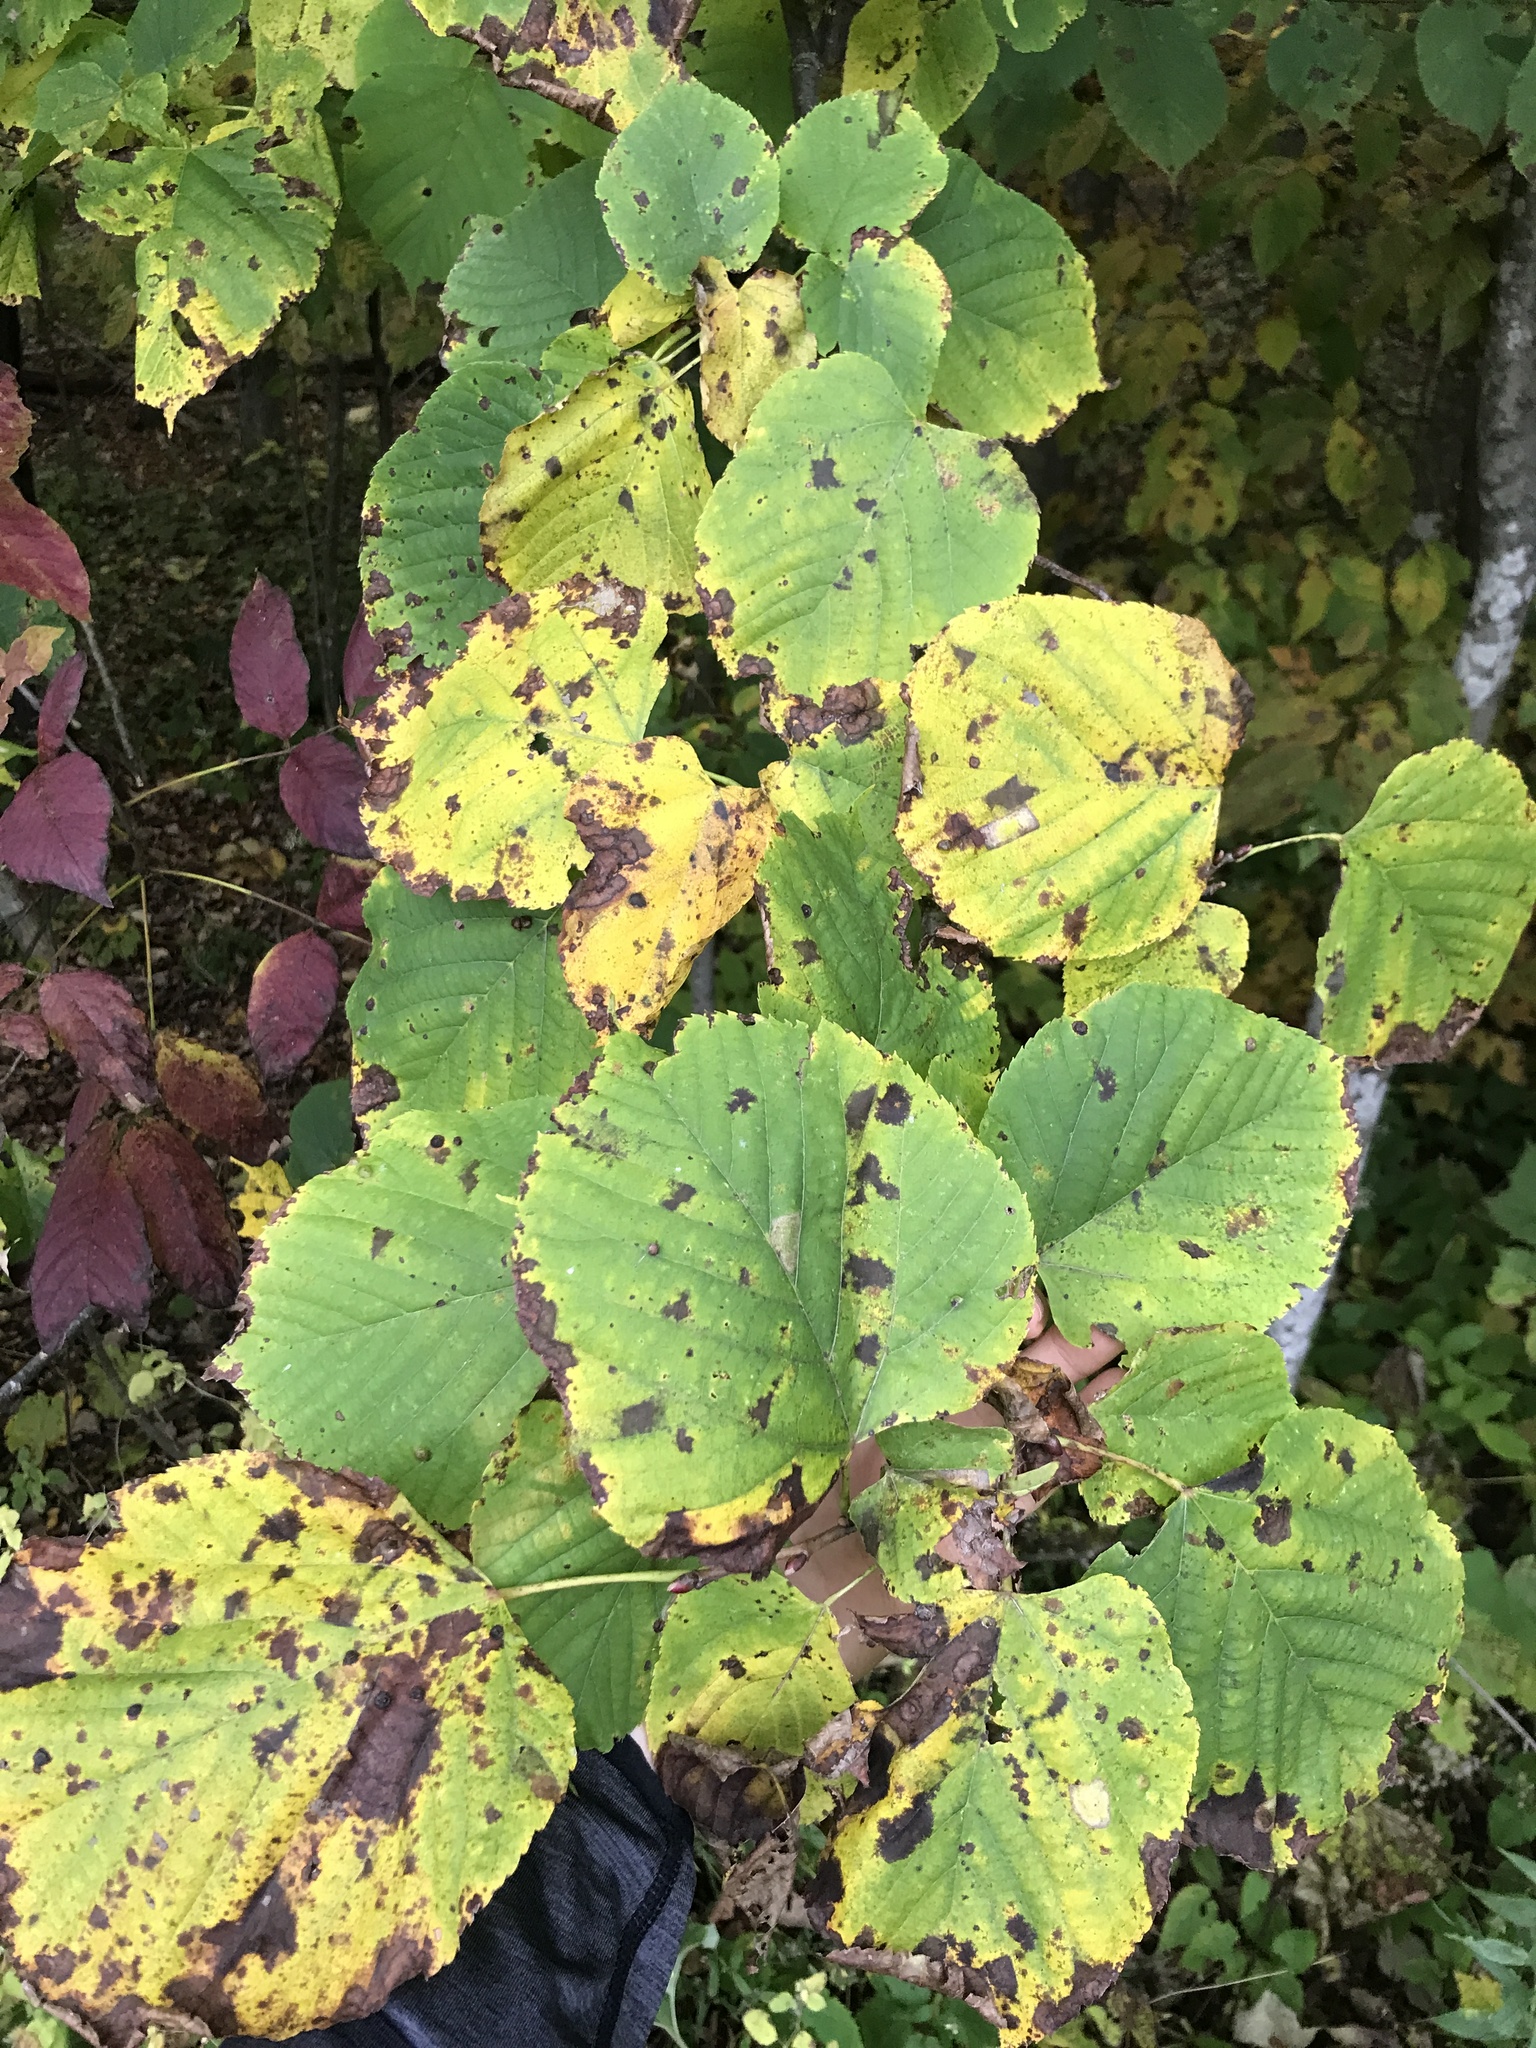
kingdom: Plantae
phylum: Tracheophyta
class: Magnoliopsida
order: Malvales
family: Malvaceae
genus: Tilia
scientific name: Tilia americana
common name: Basswood
